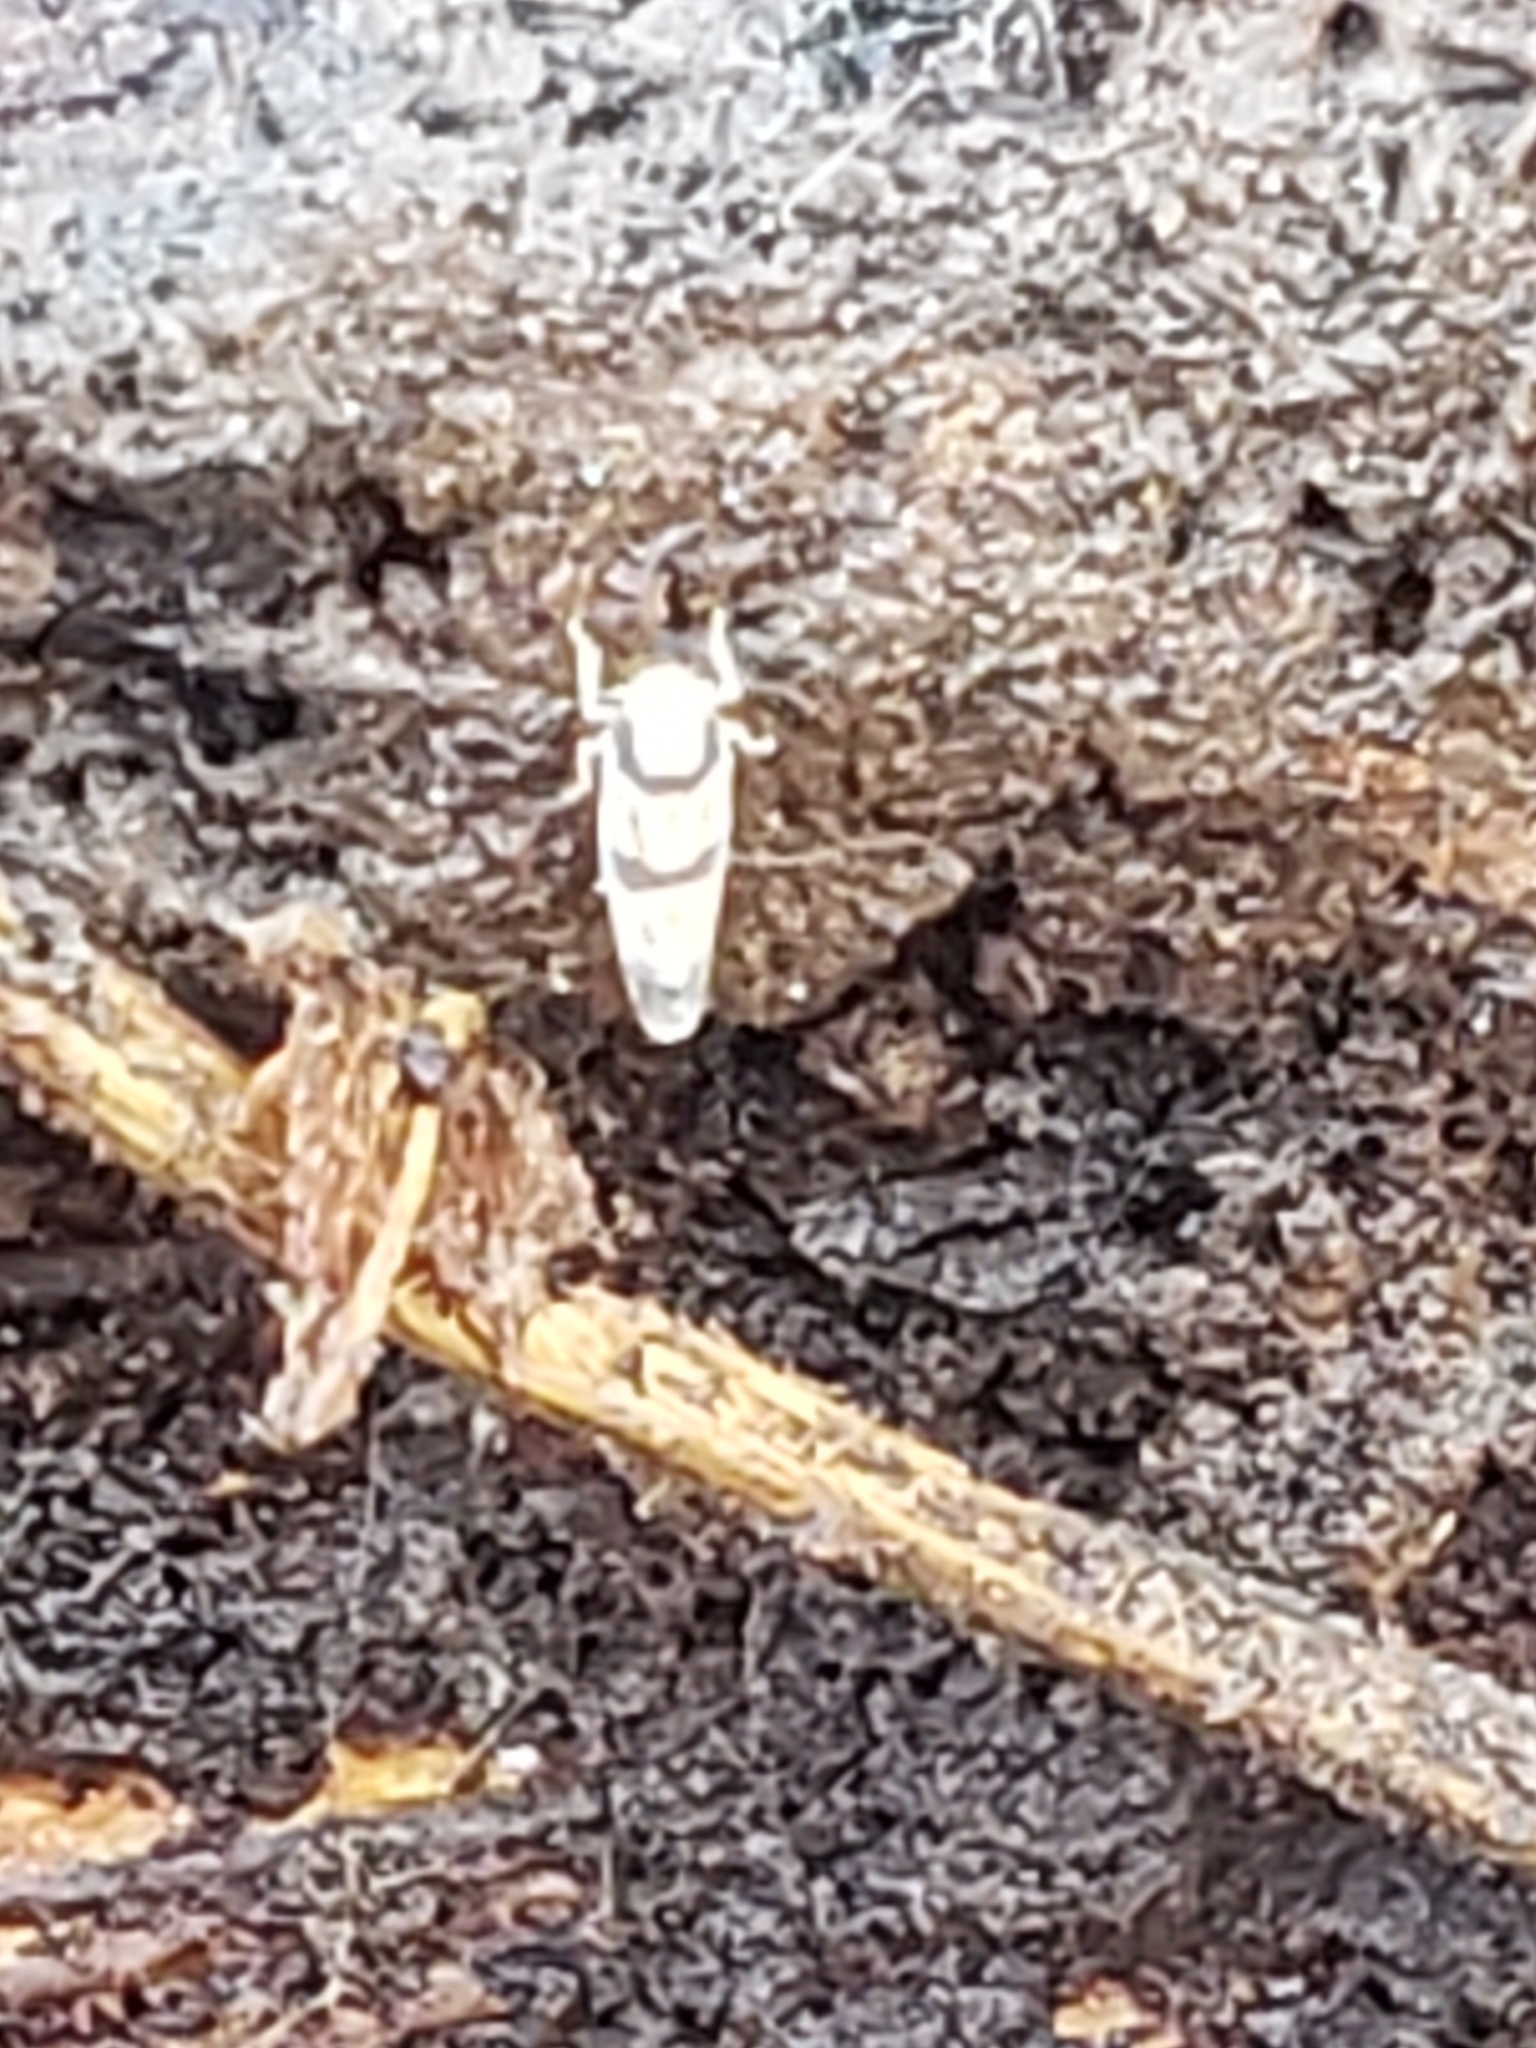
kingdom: Animalia
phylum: Arthropoda
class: Insecta
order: Hemiptera
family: Cicadellidae
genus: Erythroneura
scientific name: Erythroneura calycula
